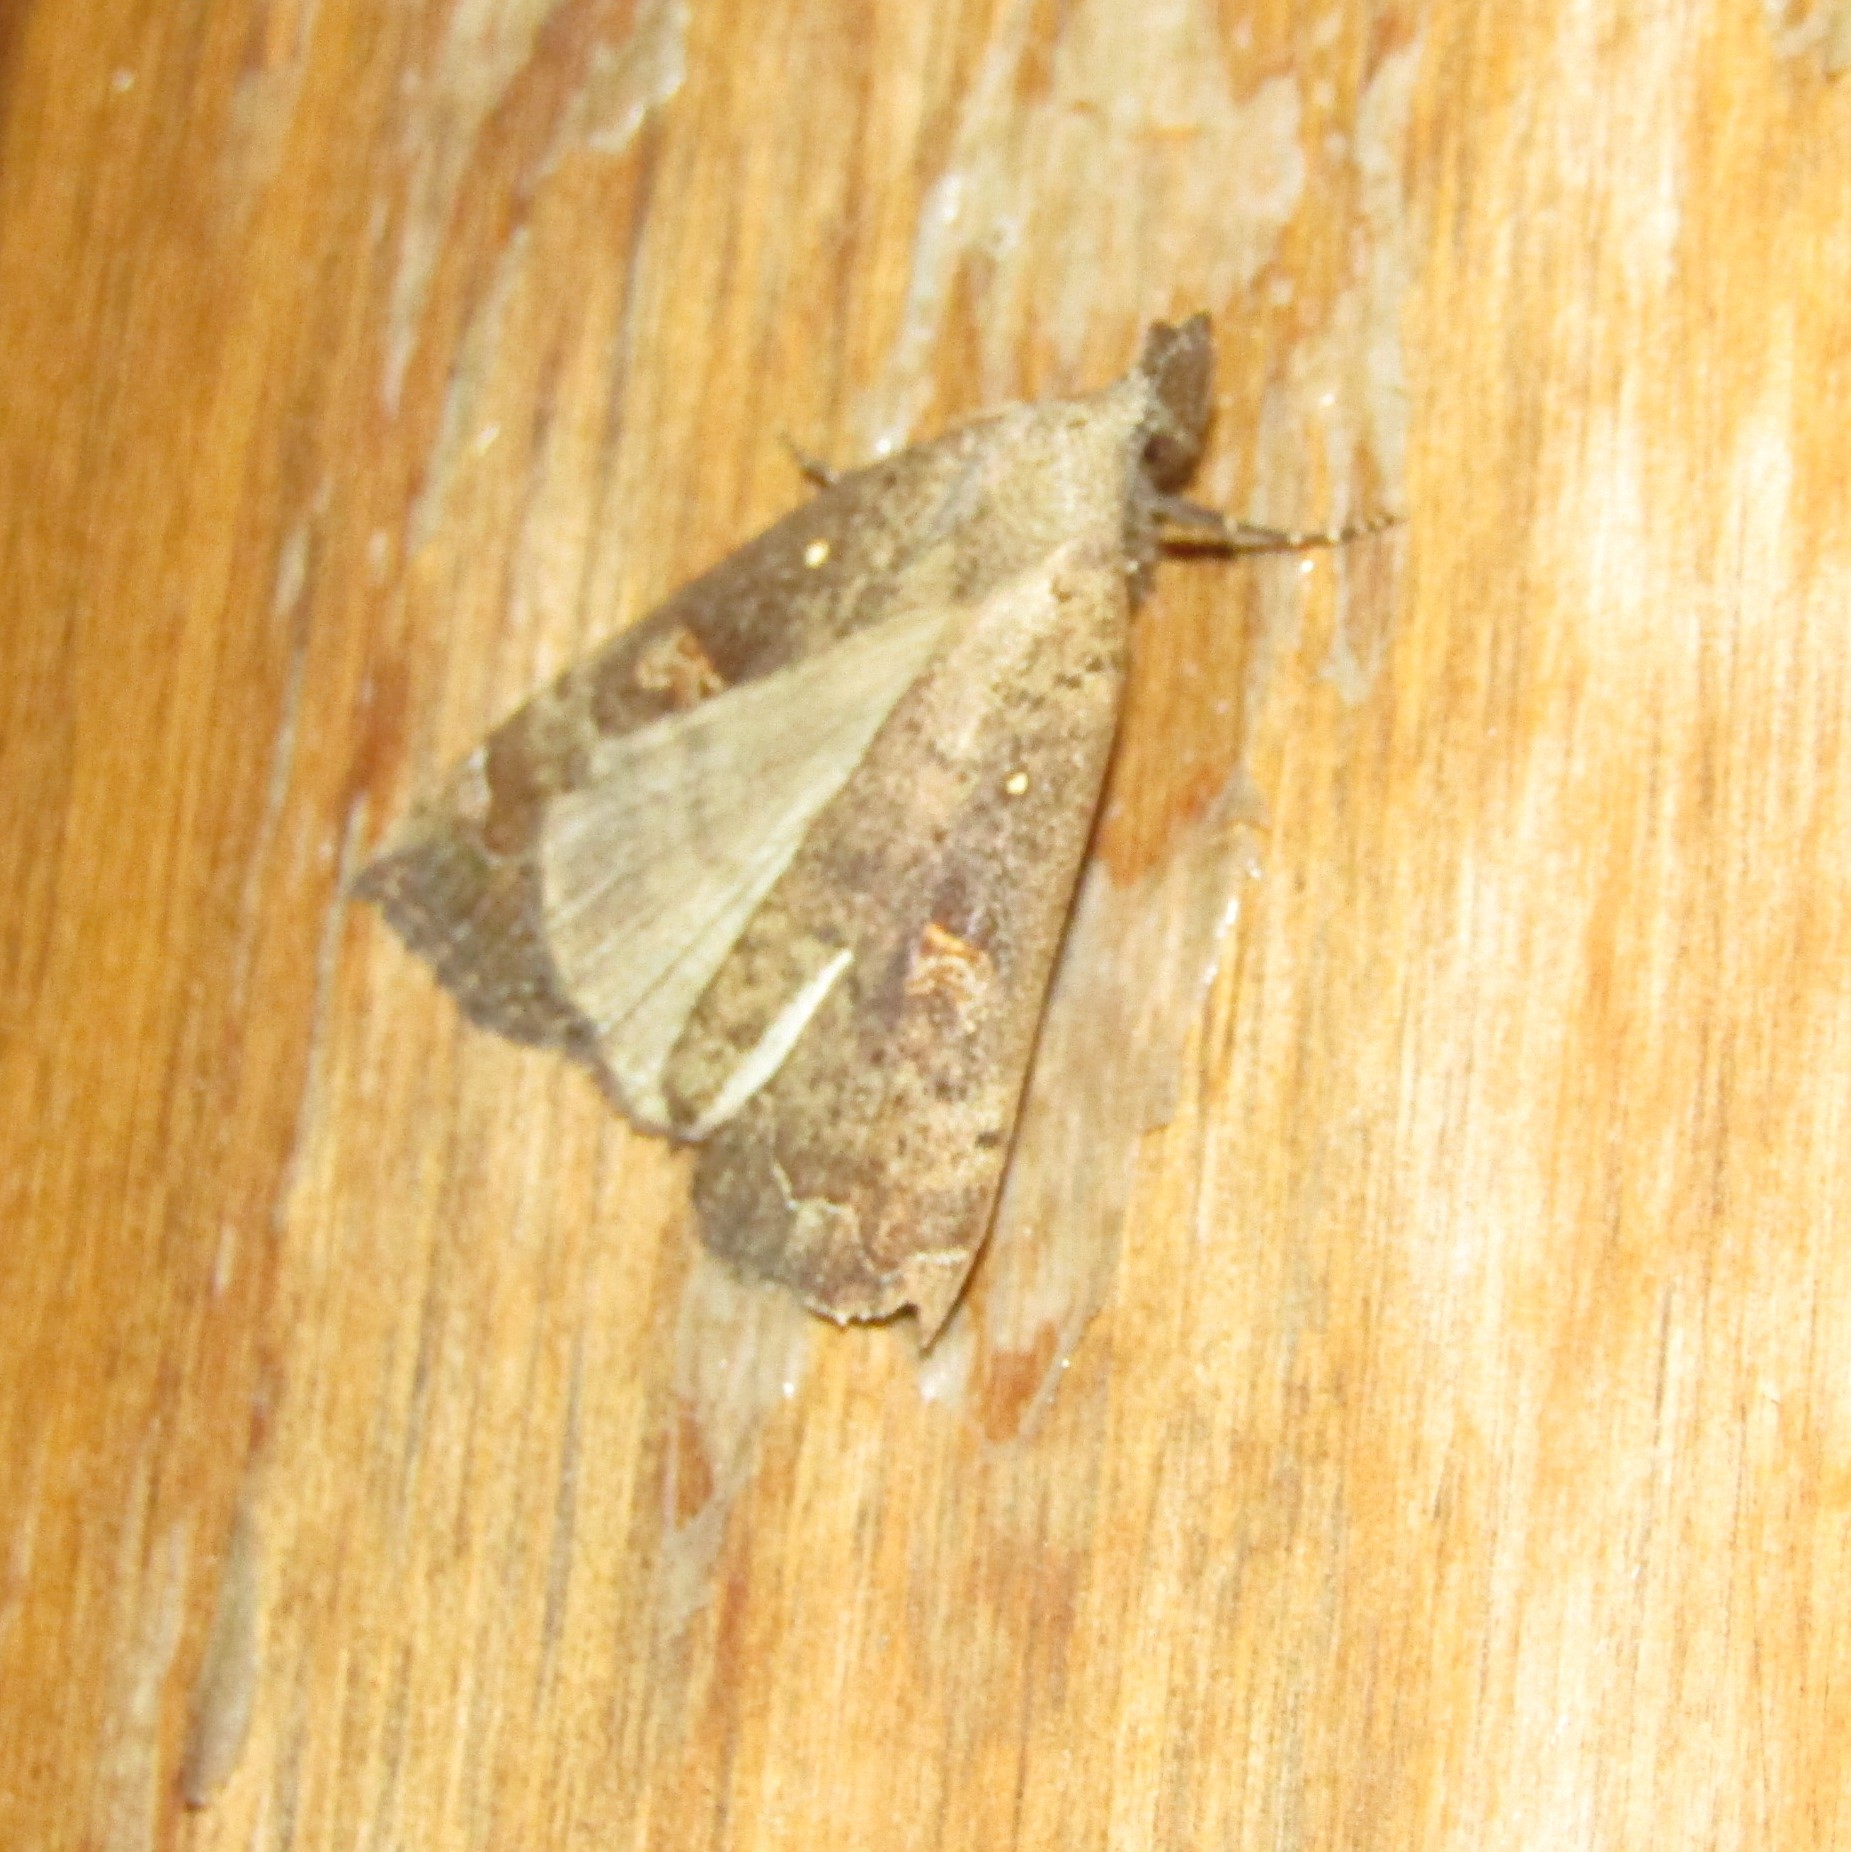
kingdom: Animalia
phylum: Arthropoda
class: Insecta
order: Lepidoptera
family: Erebidae
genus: Rhapsa
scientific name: Rhapsa scotosialis
